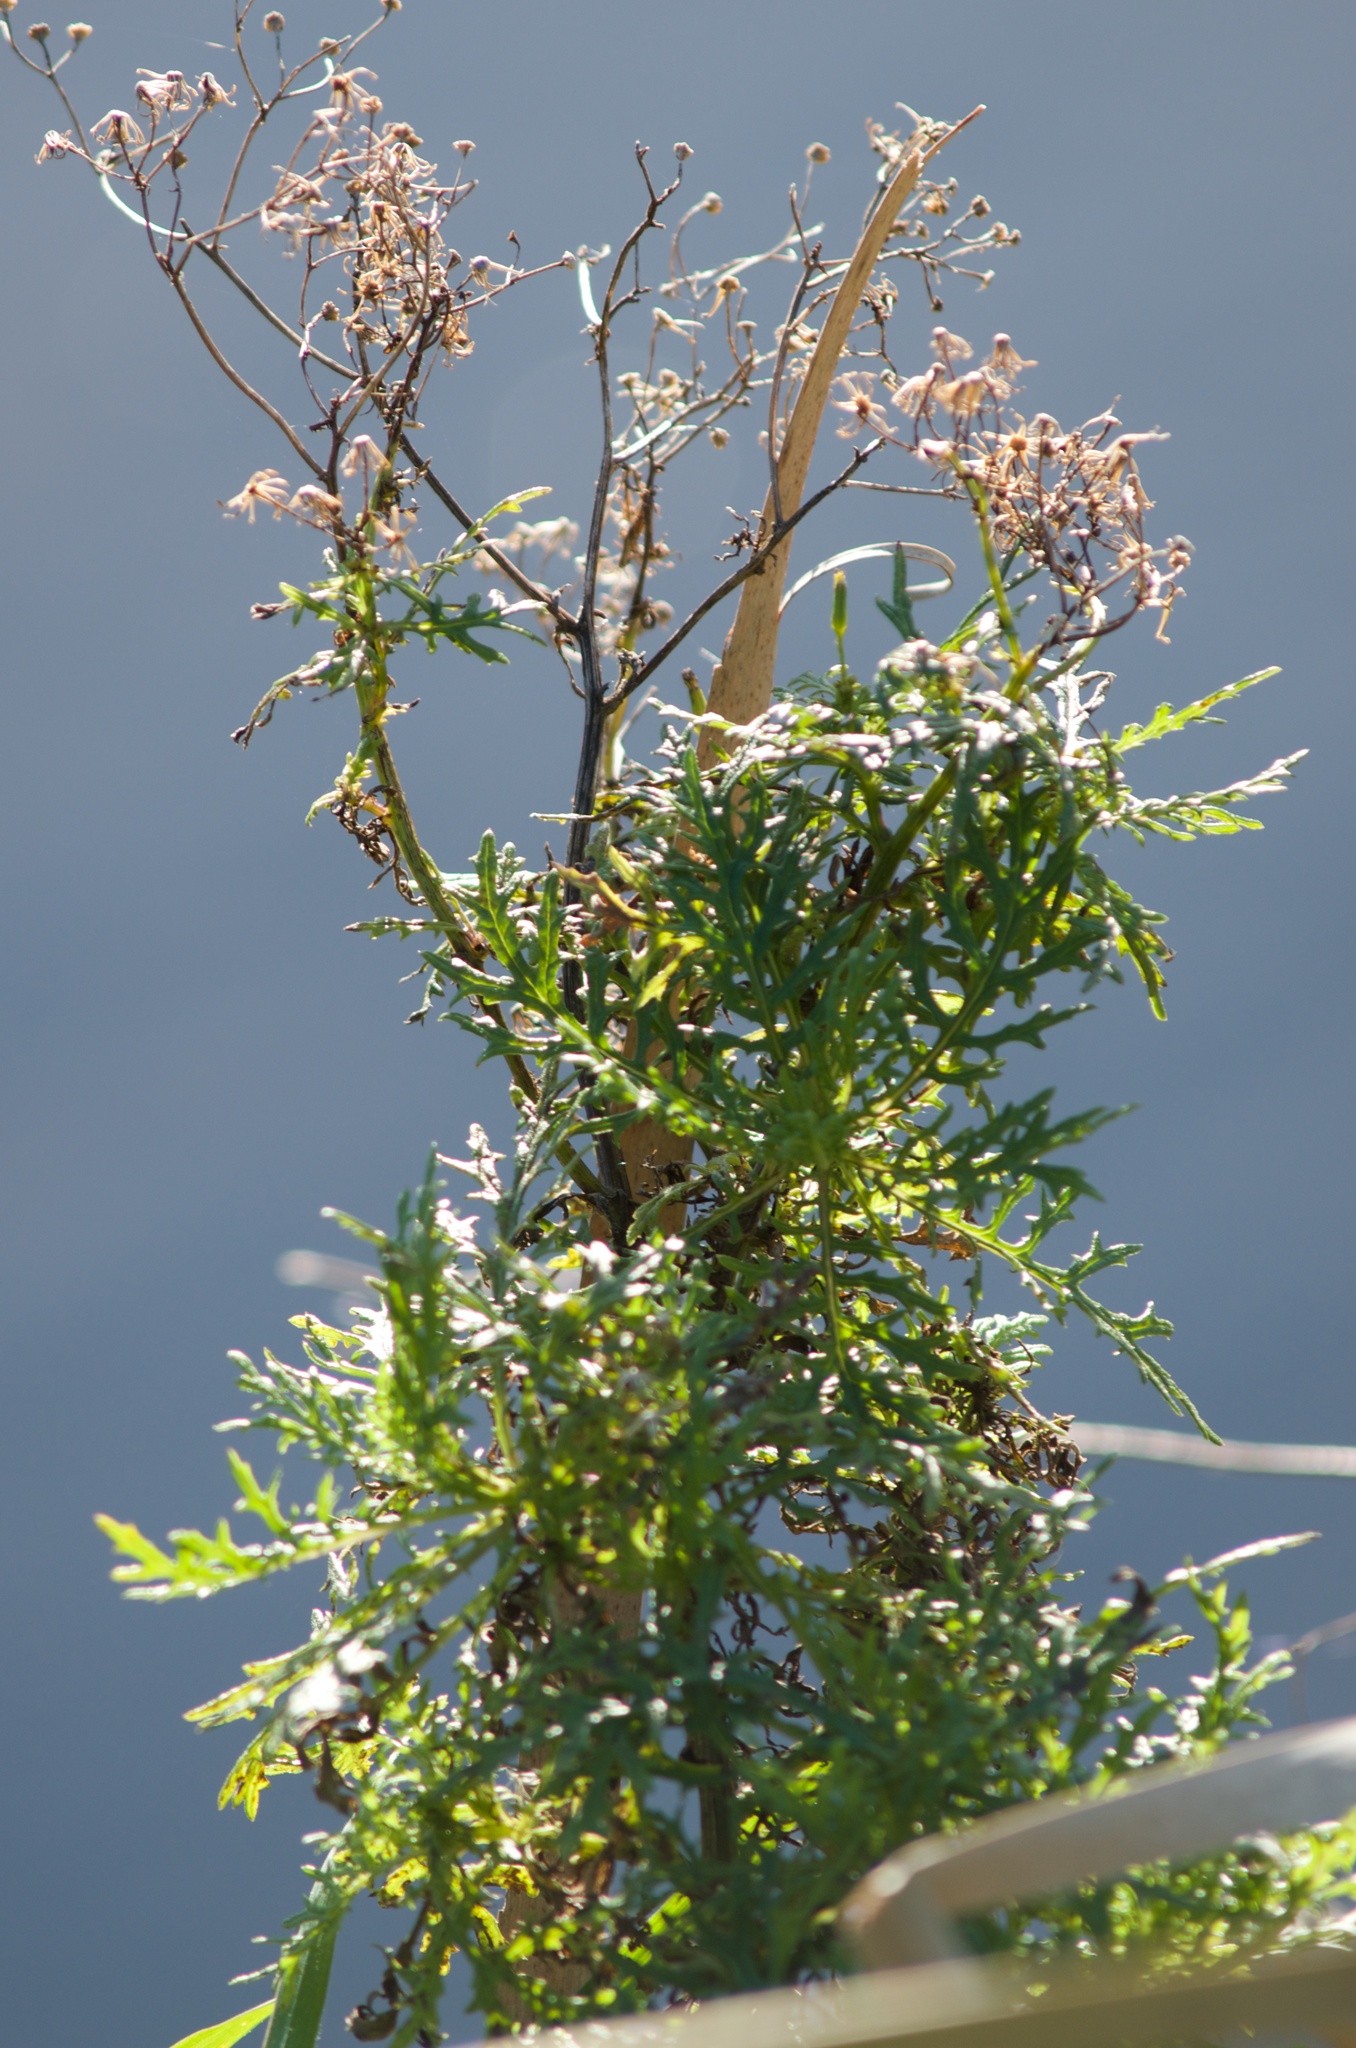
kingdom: Plantae
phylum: Tracheophyta
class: Magnoliopsida
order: Asterales
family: Asteraceae
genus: Senecio
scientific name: Senecio bipinnatisectus
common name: Australian fireweed
